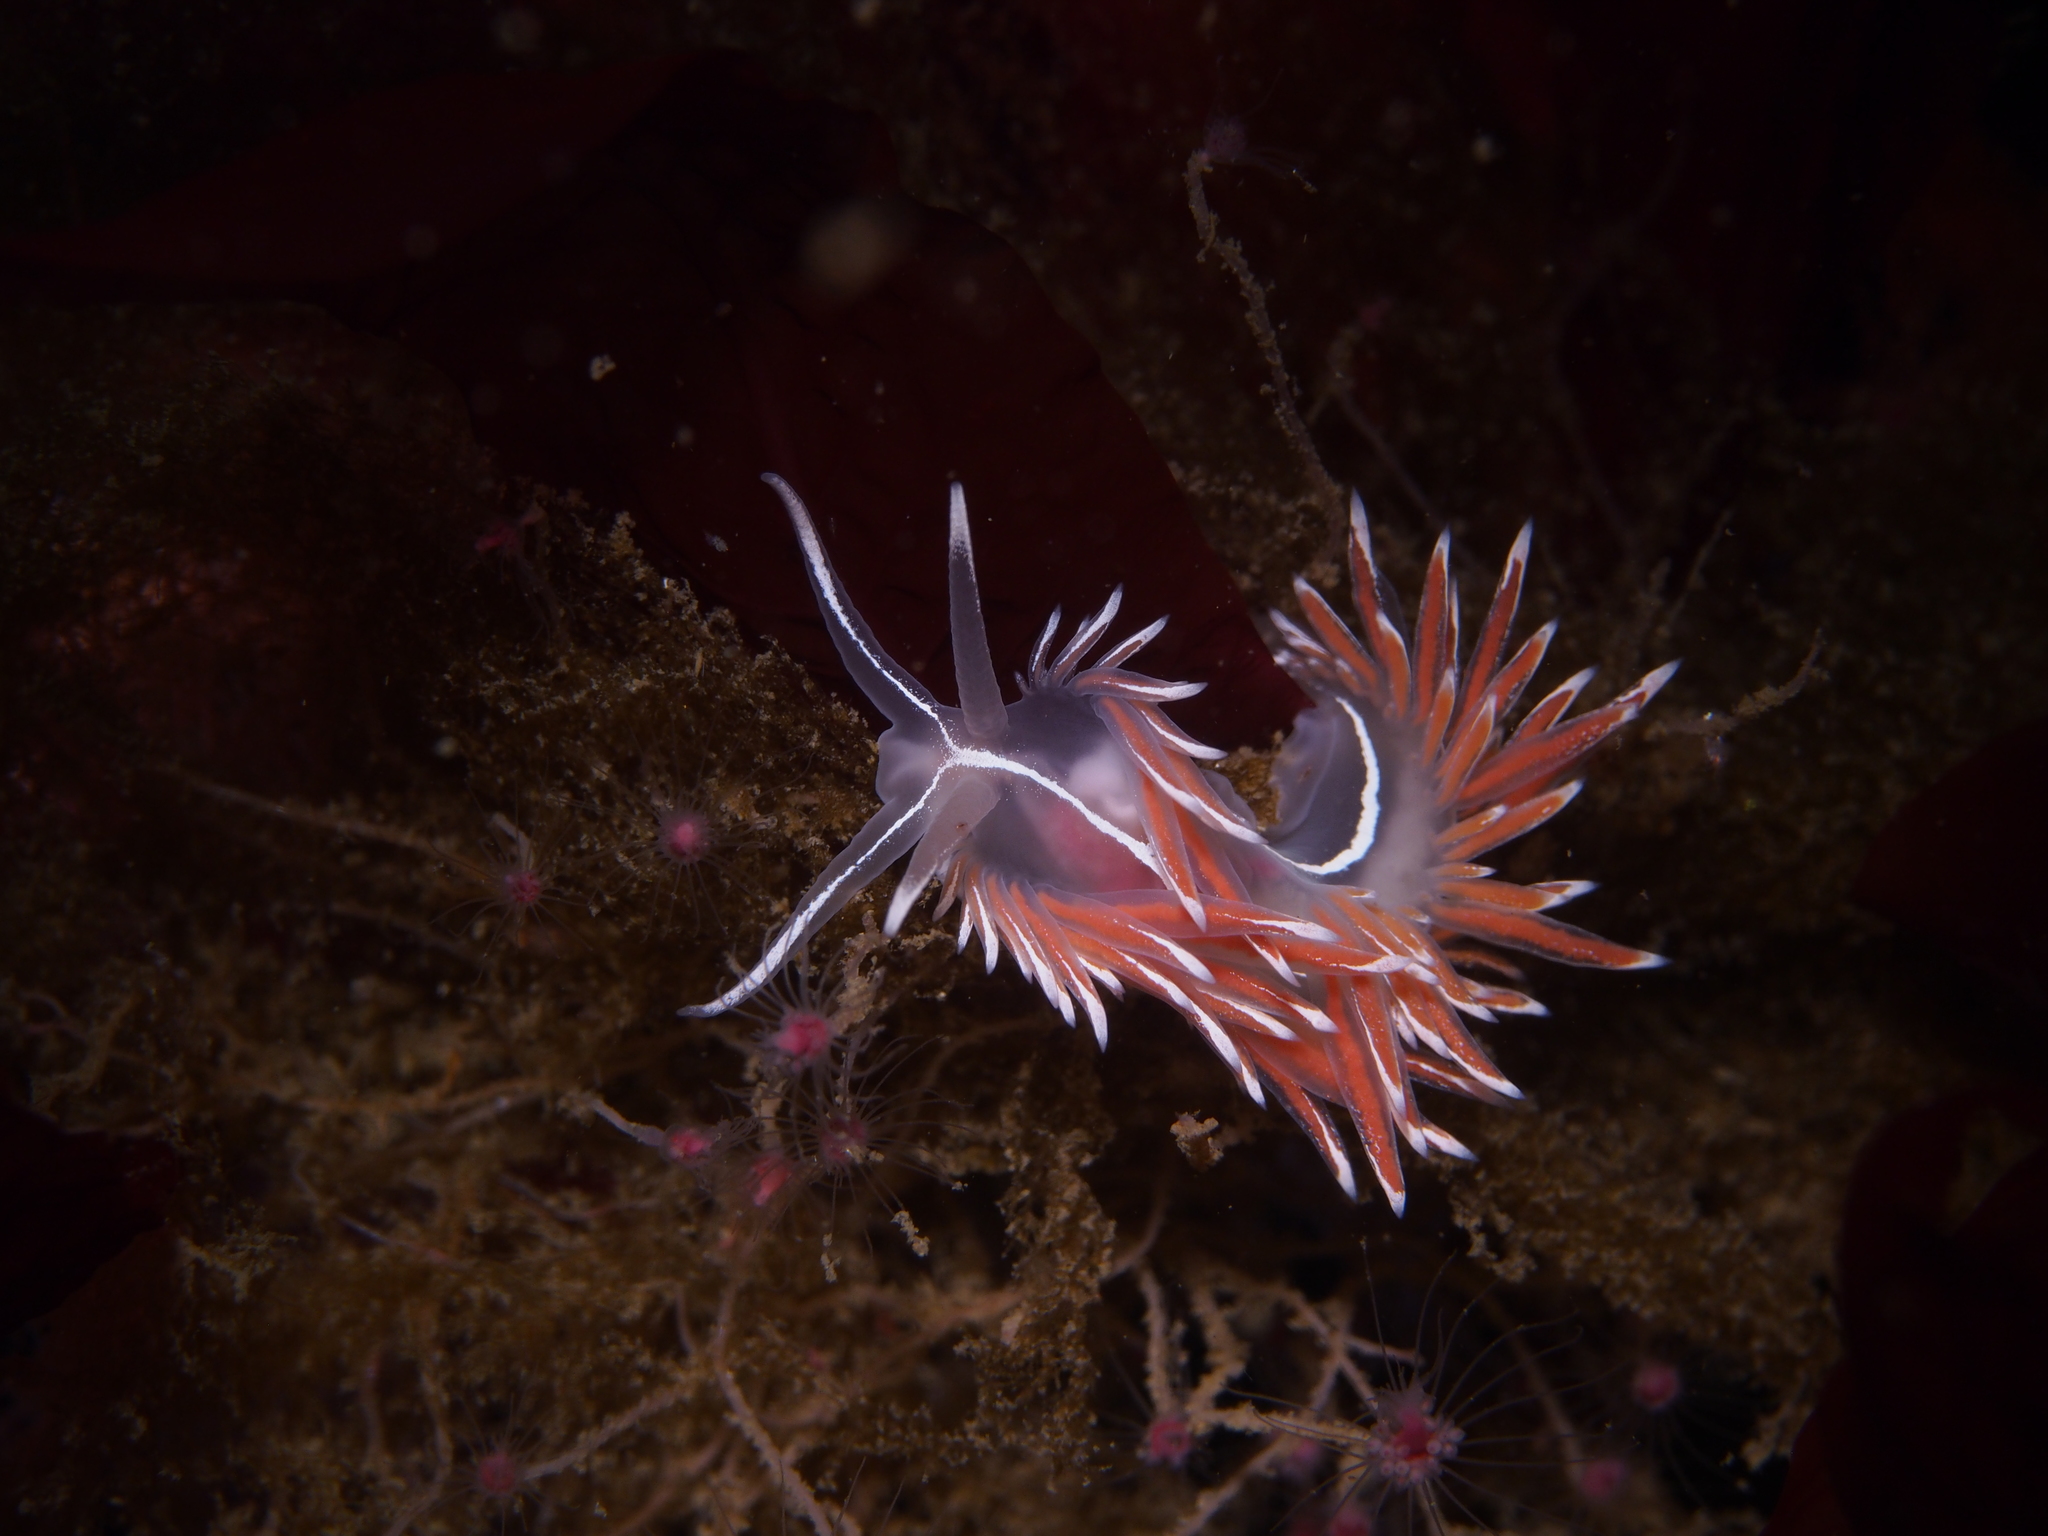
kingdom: Animalia
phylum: Mollusca
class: Gastropoda
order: Nudibranchia
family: Coryphellidae
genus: Coryphella
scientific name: Coryphella lineata
